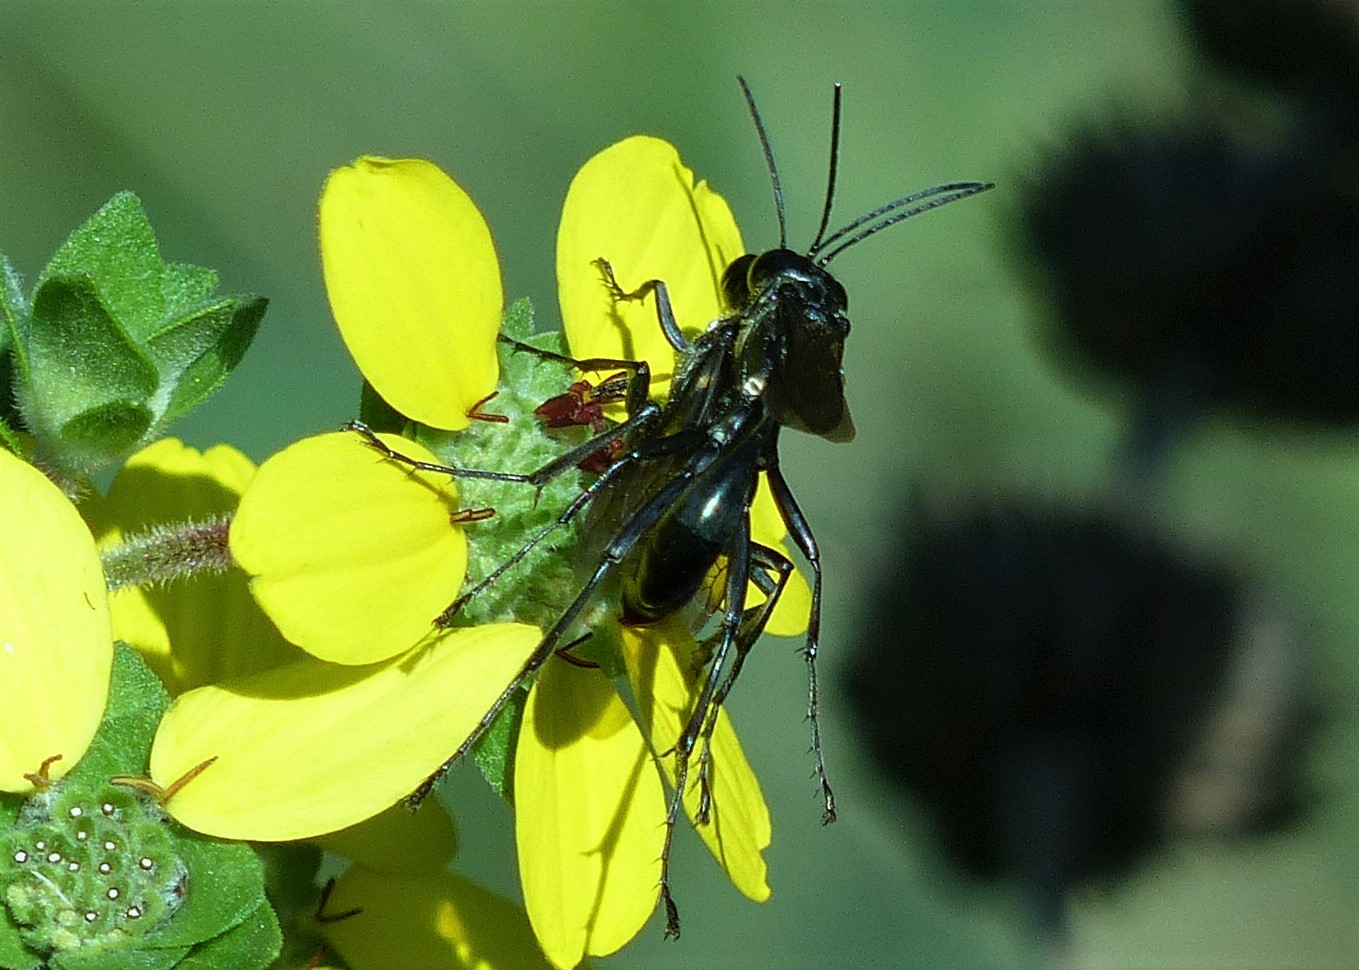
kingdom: Animalia
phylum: Arthropoda
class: Insecta
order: Hymenoptera
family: Sphecidae
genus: Eremnophila
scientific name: Eremnophila aureonotata
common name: Gold-marked thread-waisted wasp
